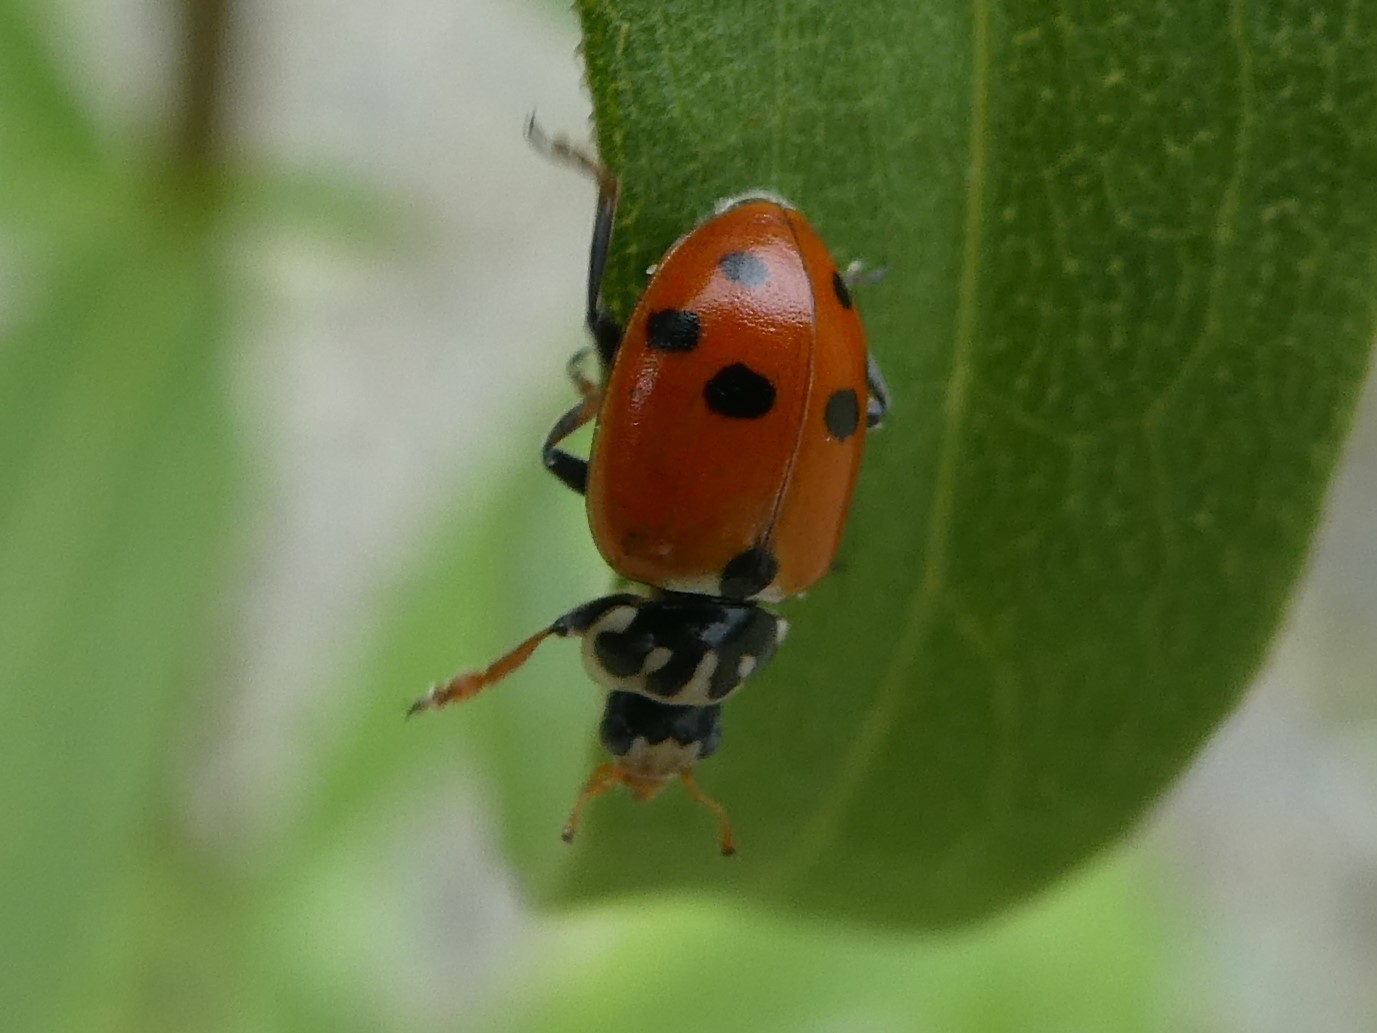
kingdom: Animalia
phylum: Arthropoda
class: Insecta
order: Coleoptera
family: Coccinellidae
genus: Hippodamia
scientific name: Hippodamia variegata
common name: Ladybird beetle
